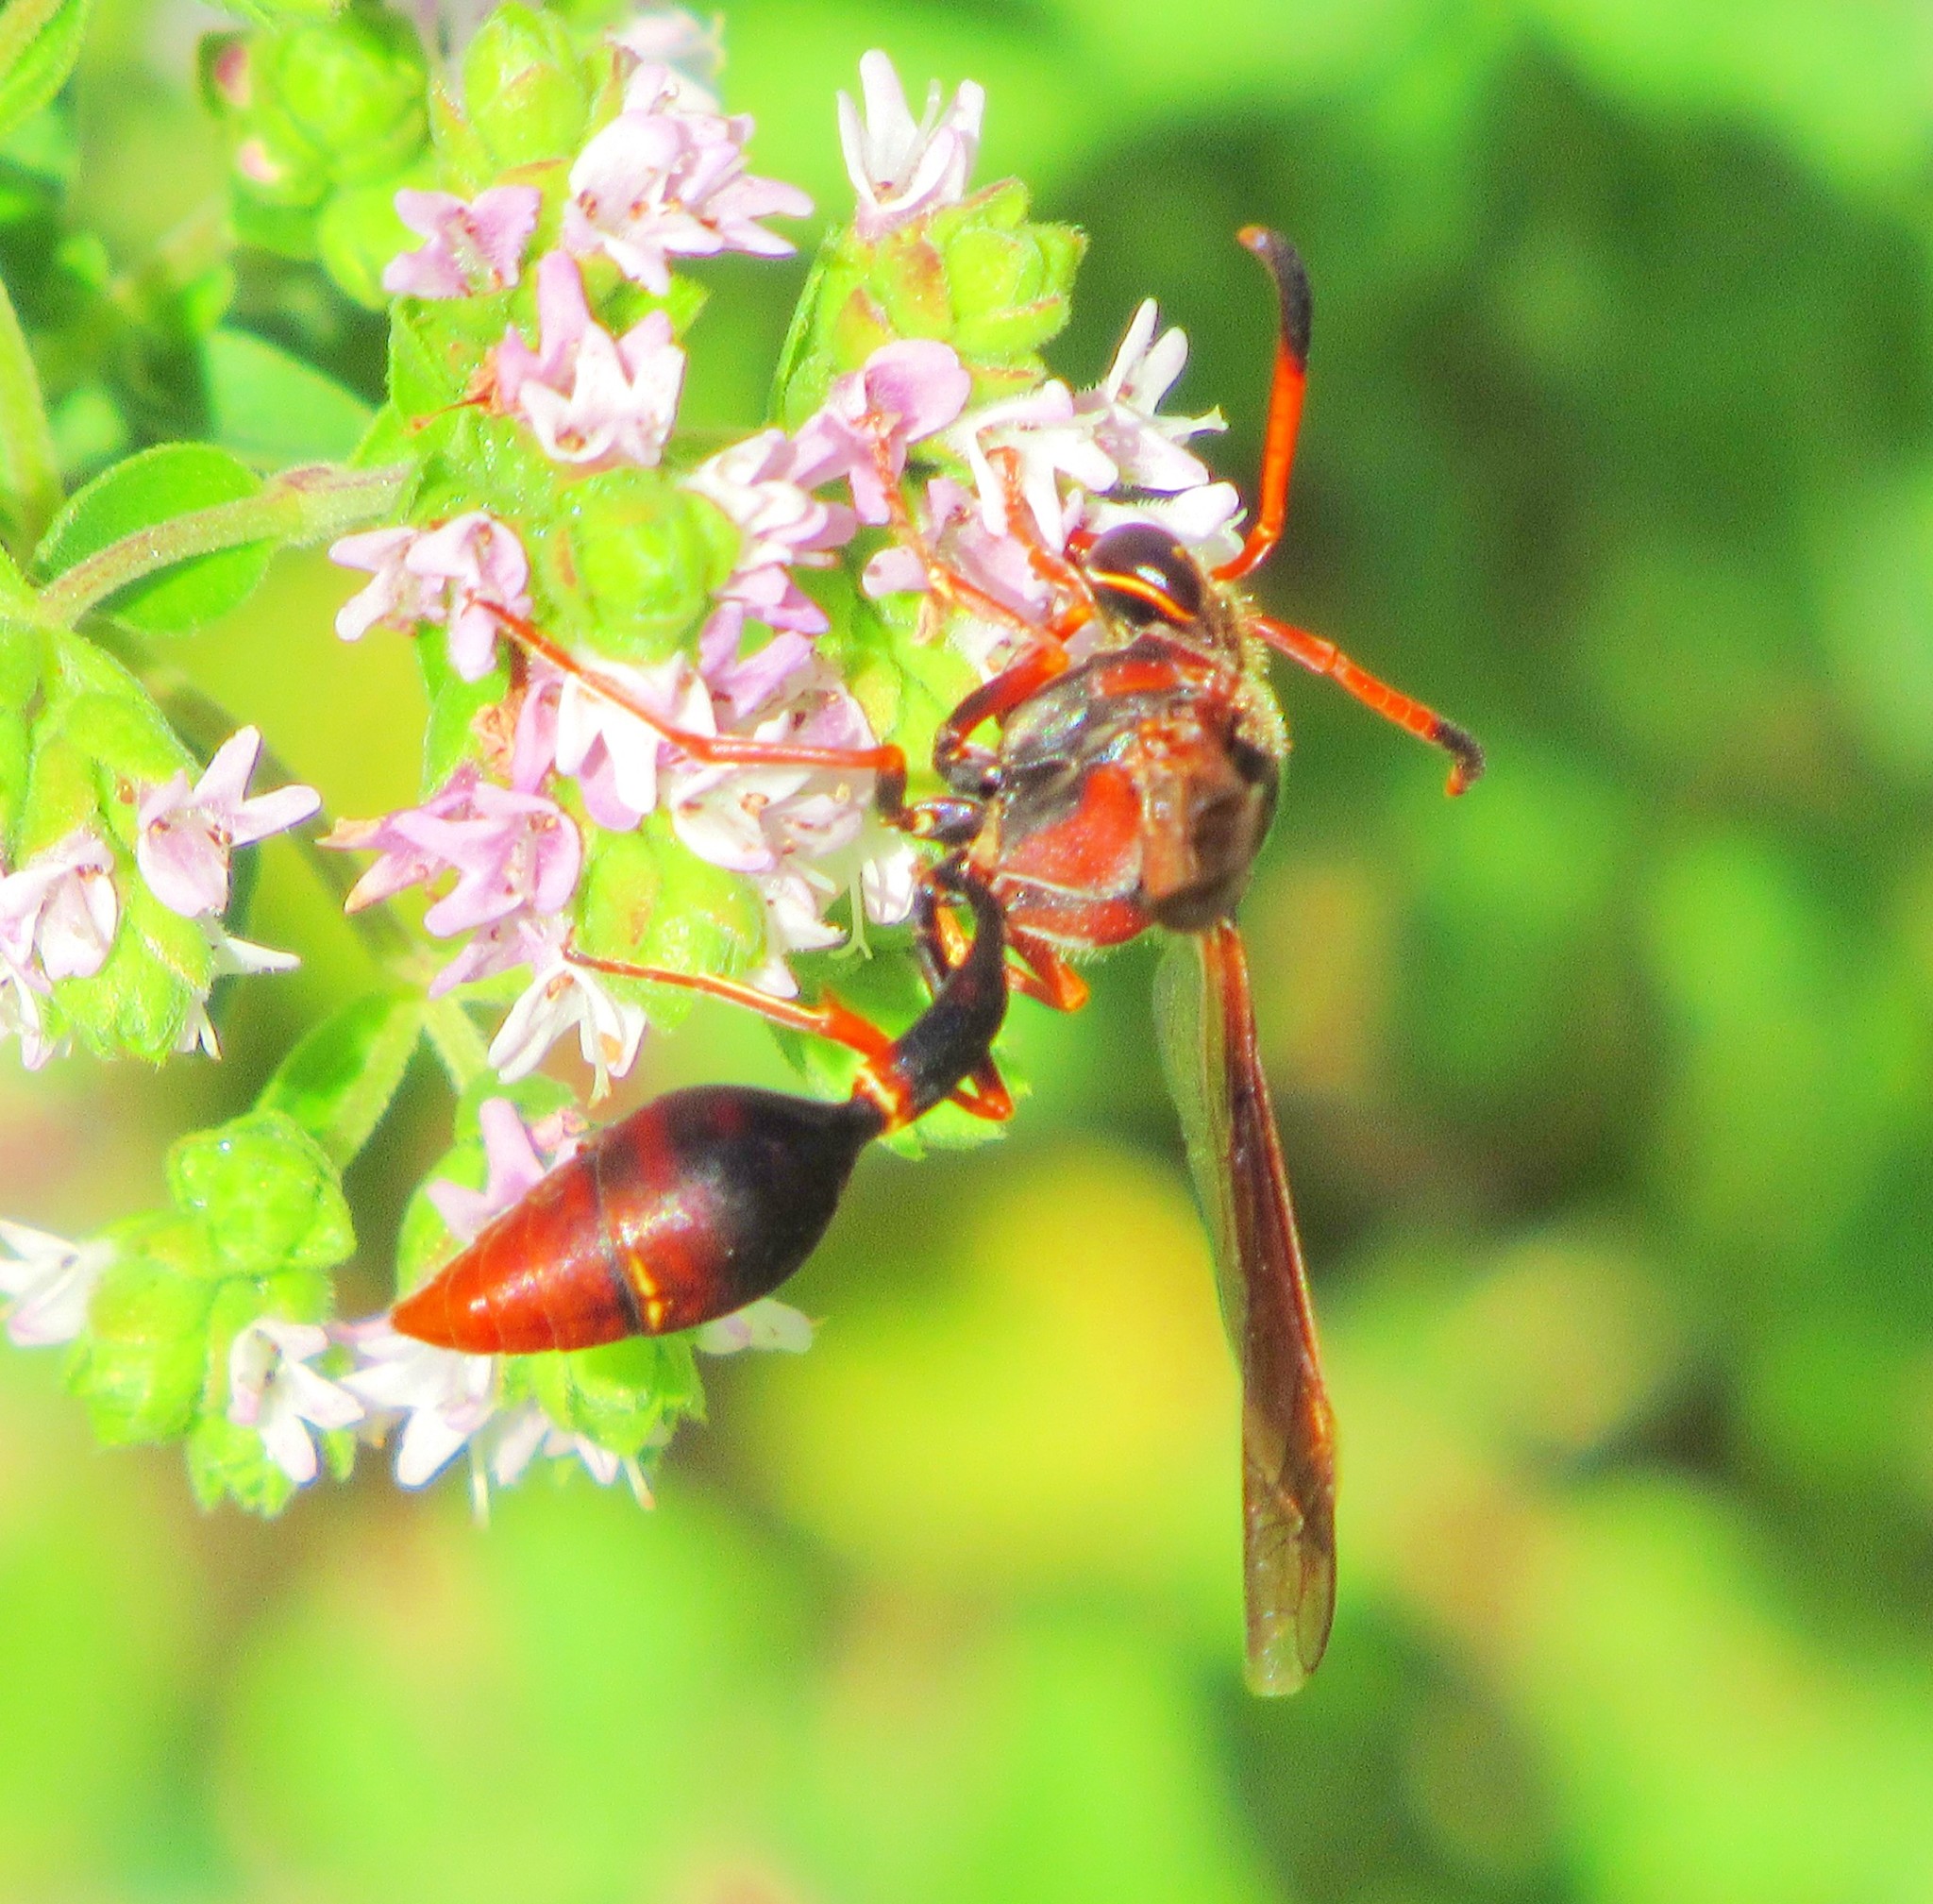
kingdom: Animalia
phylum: Arthropoda
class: Insecta
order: Hymenoptera
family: Eumenidae
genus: Zeta
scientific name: Zeta argillaceum
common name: Potter wasp
